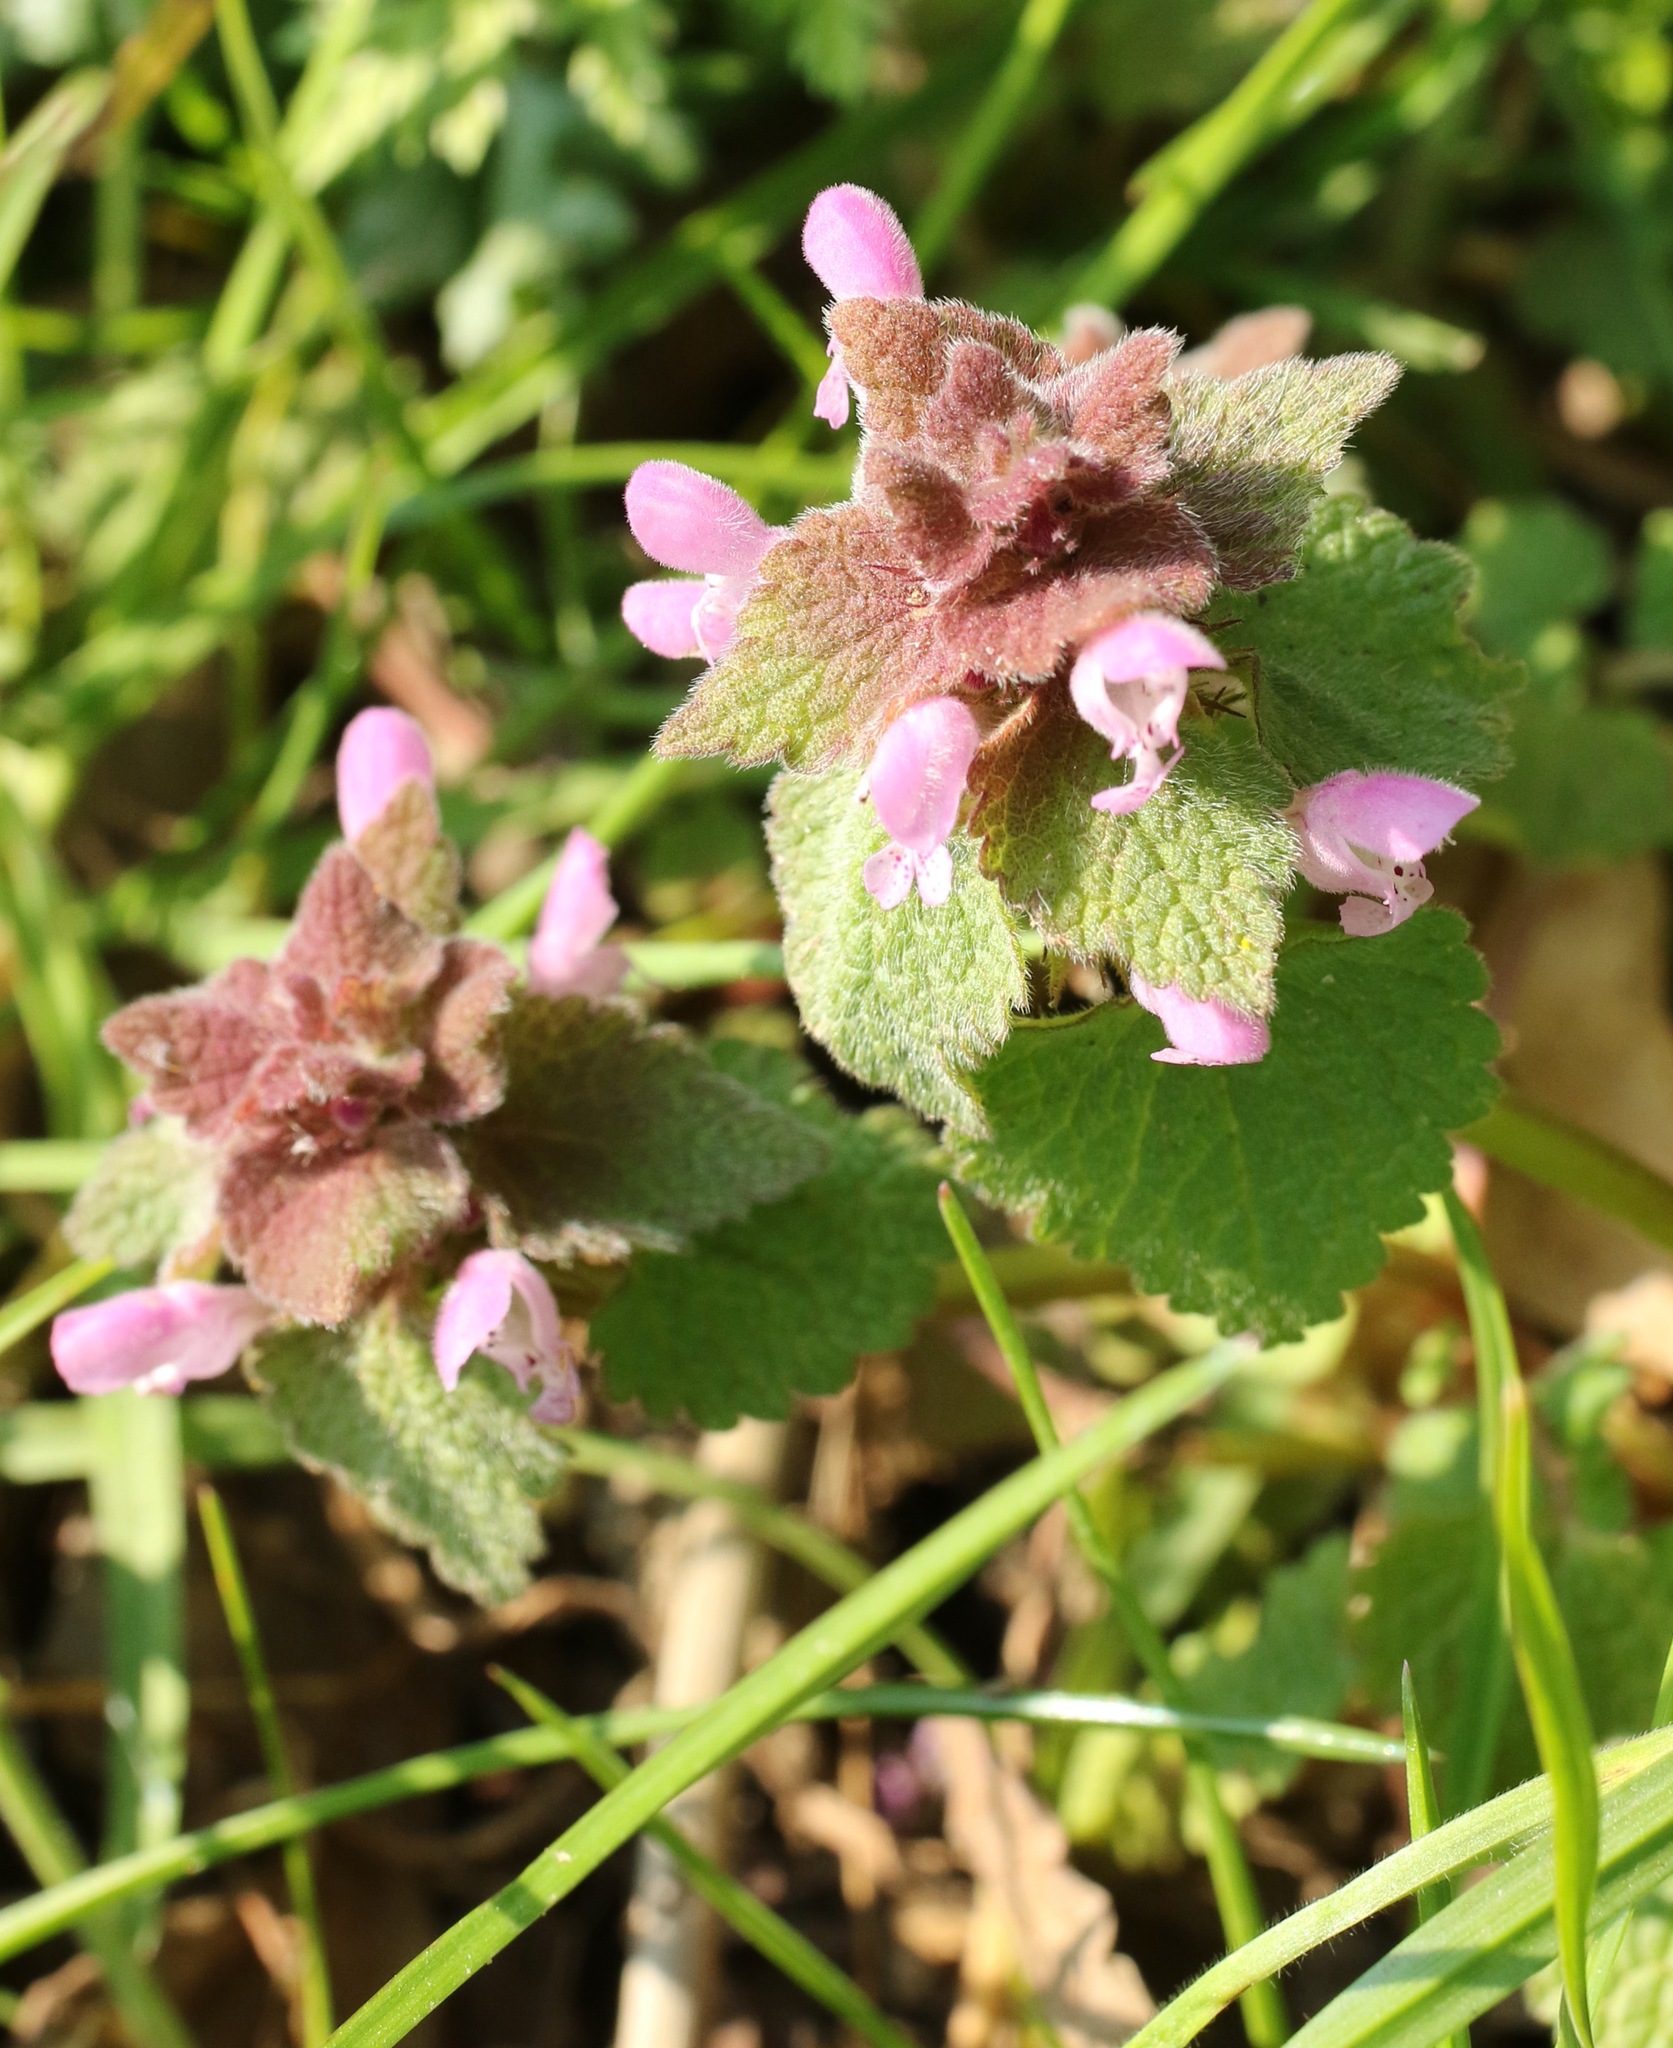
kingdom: Plantae
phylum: Tracheophyta
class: Magnoliopsida
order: Lamiales
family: Lamiaceae
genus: Lamium
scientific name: Lamium purpureum
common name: Red dead-nettle
